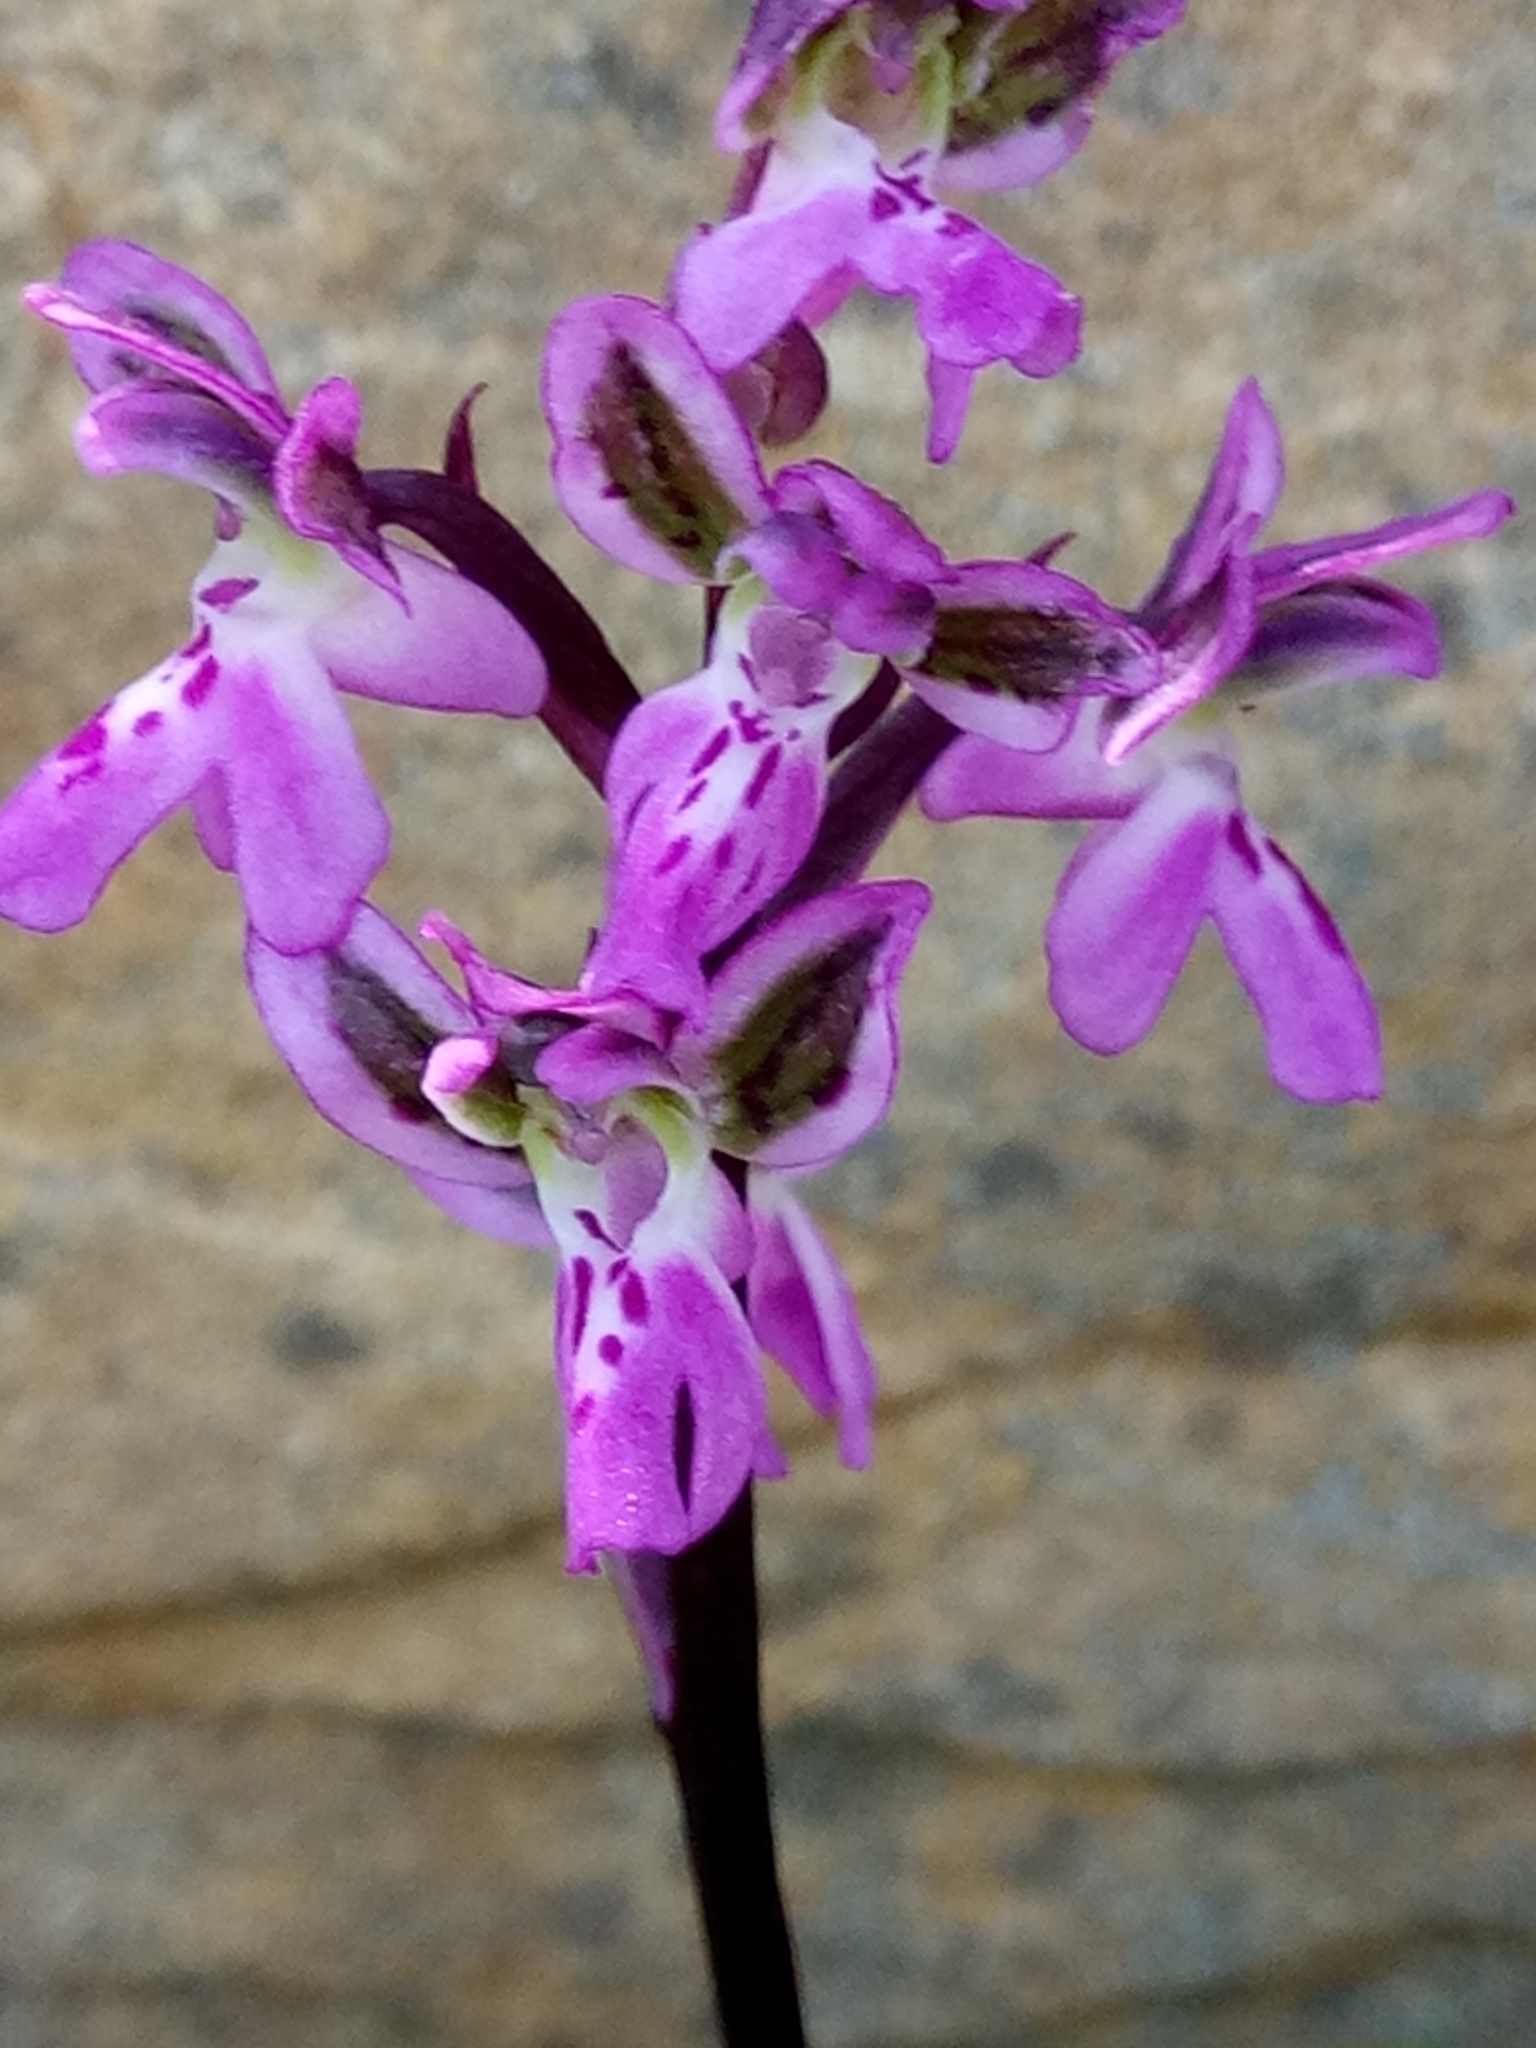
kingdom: Plantae
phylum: Tracheophyta
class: Liliopsida
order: Asparagales
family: Orchidaceae
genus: Orchis
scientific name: Orchis patens
